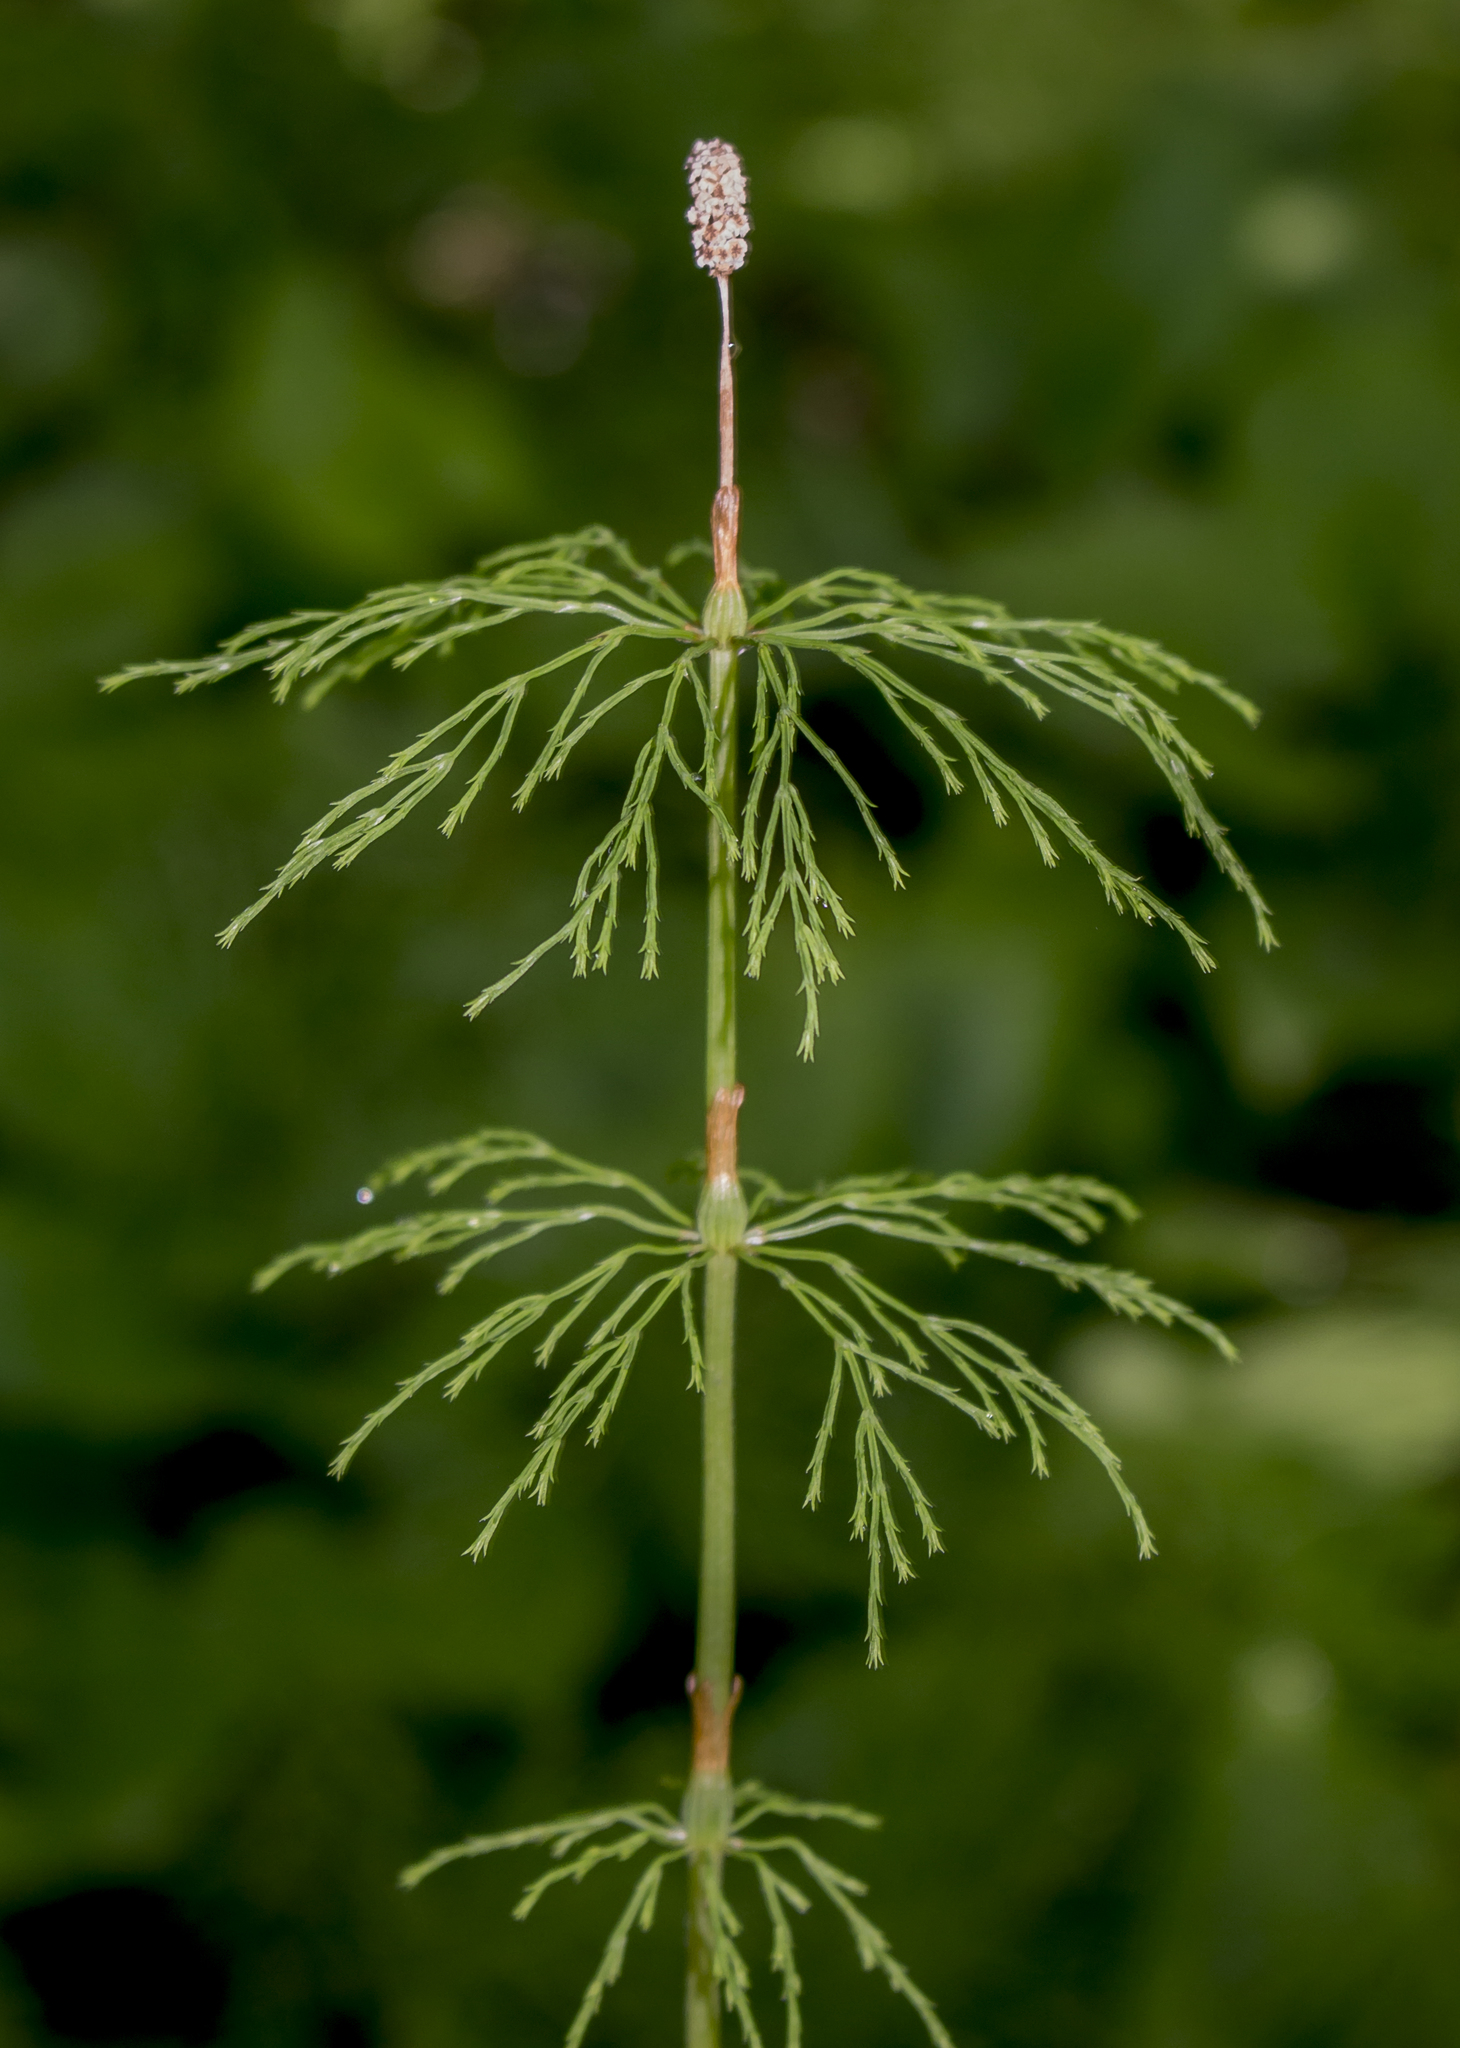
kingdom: Plantae
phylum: Tracheophyta
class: Polypodiopsida
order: Equisetales
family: Equisetaceae
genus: Equisetum
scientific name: Equisetum sylvaticum
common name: Wood horsetail
